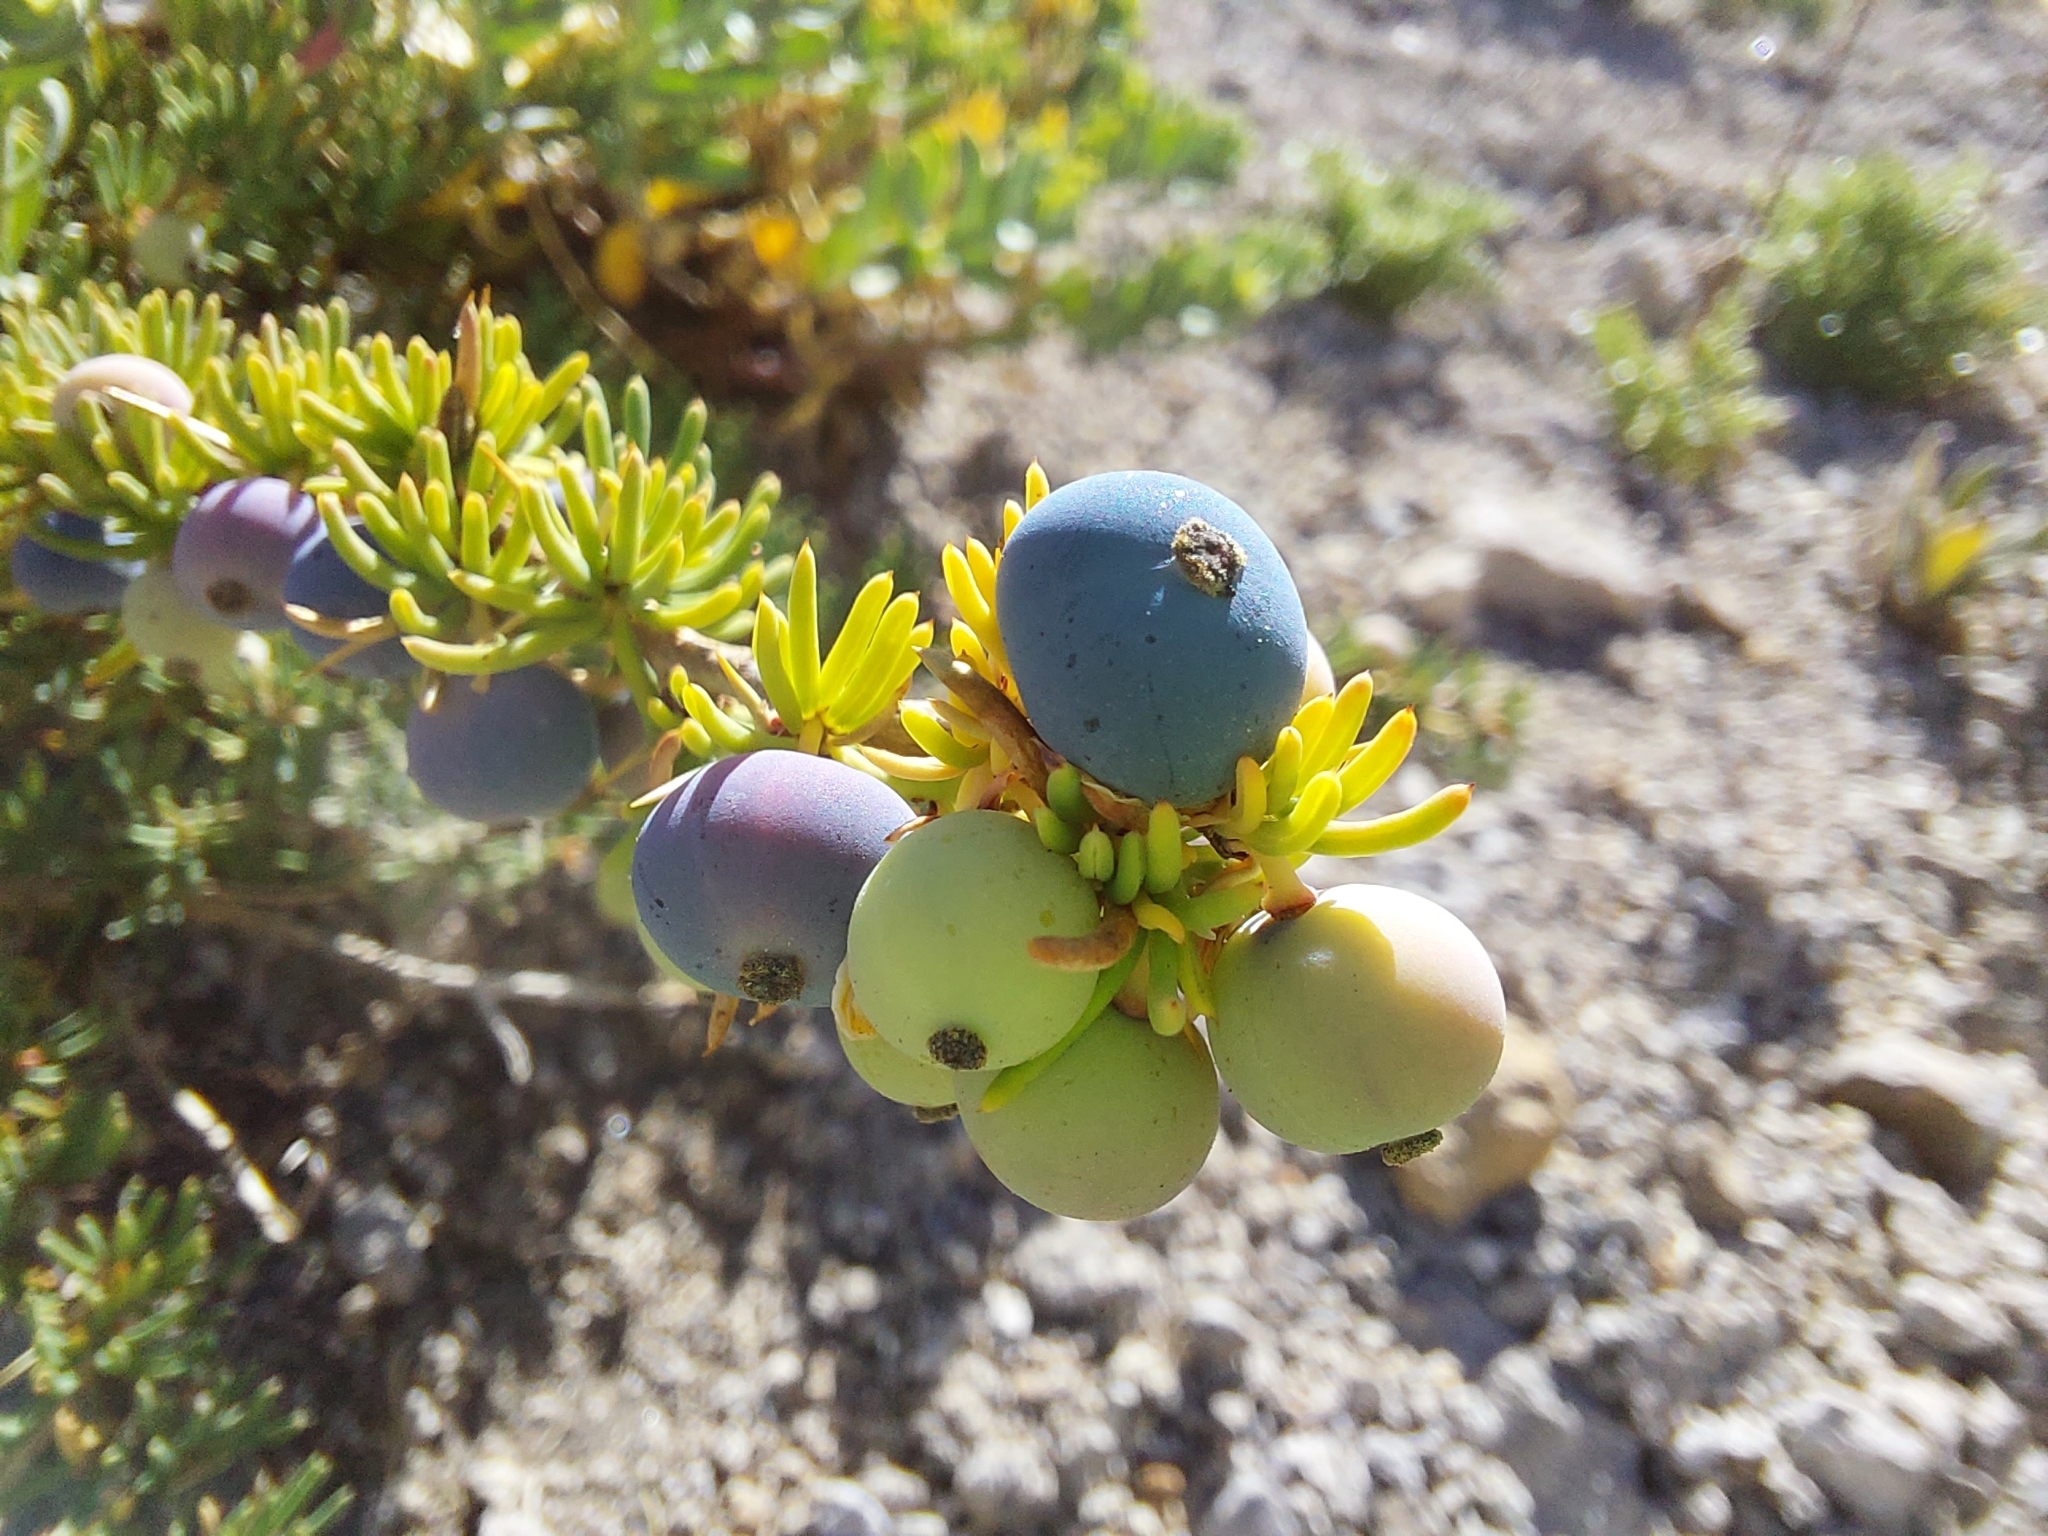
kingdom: Plantae
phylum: Tracheophyta
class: Magnoliopsida
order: Ranunculales
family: Berberidaceae
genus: Berberis
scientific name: Berberis empetrifolia
